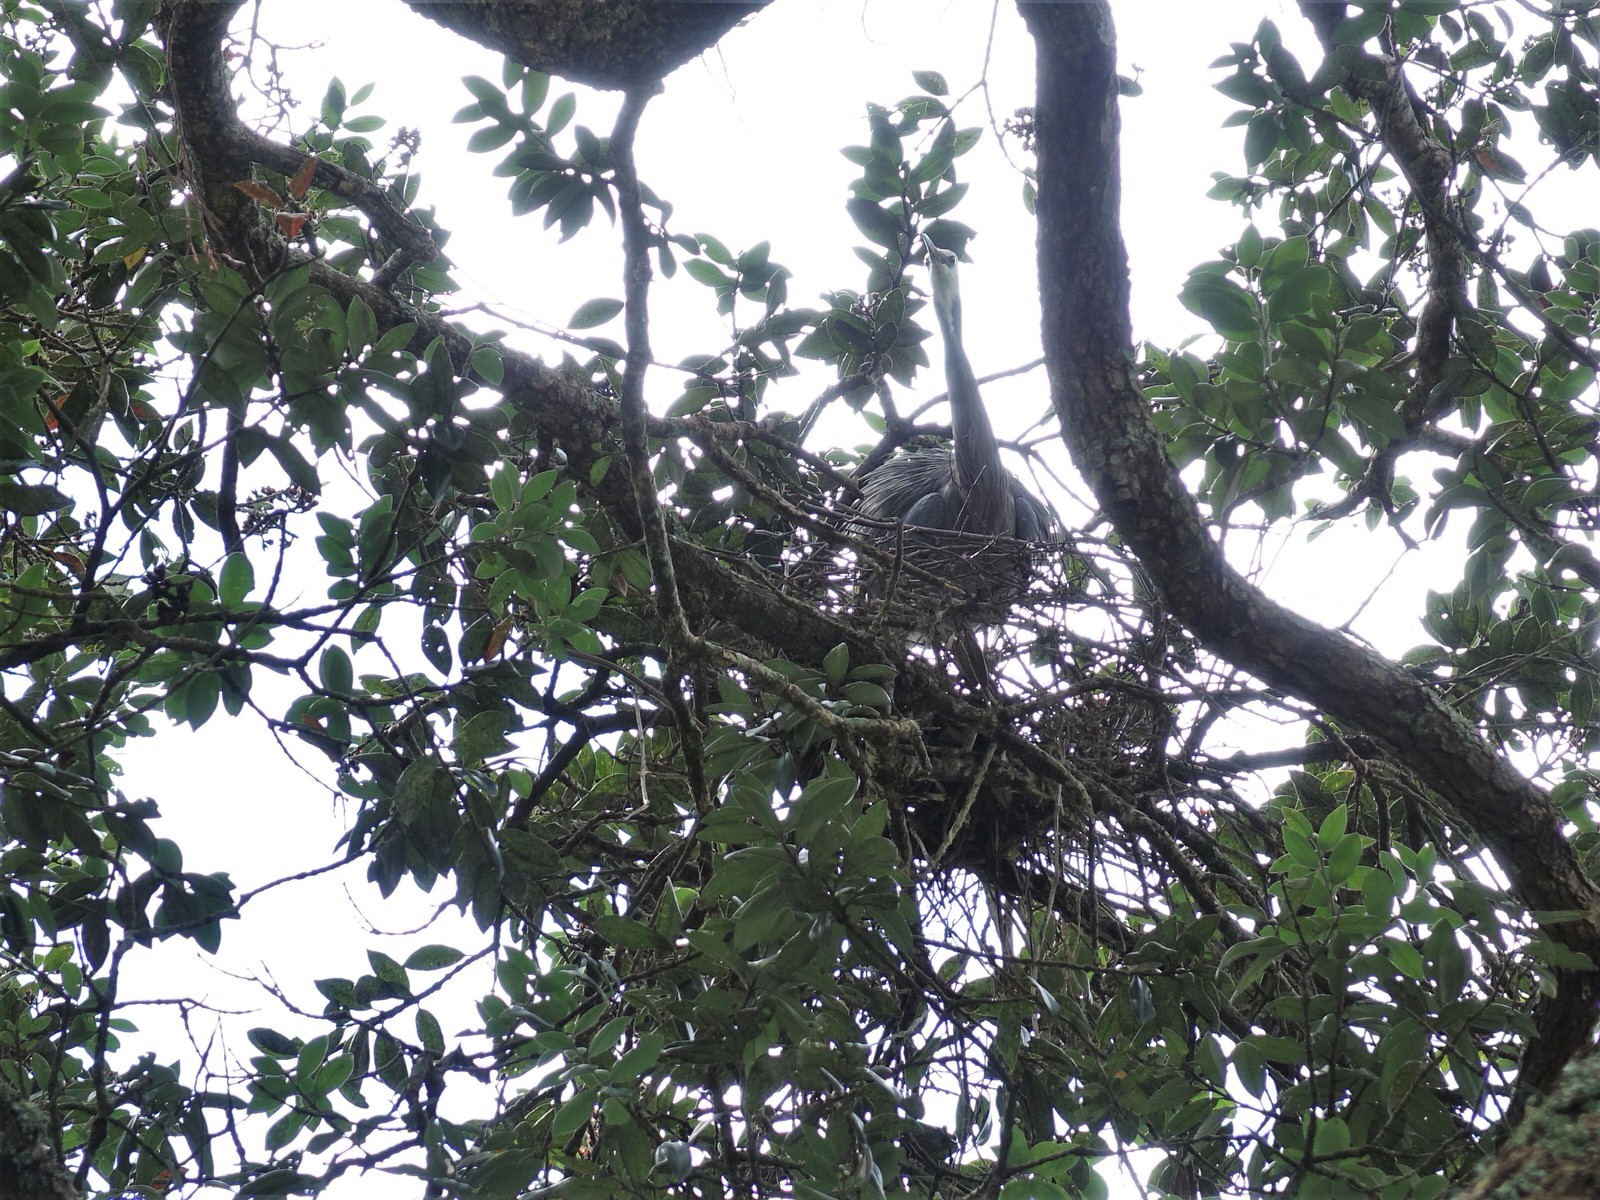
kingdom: Animalia
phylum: Chordata
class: Aves
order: Pelecaniformes
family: Ardeidae
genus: Egretta
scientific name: Egretta novaehollandiae
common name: White-faced heron
